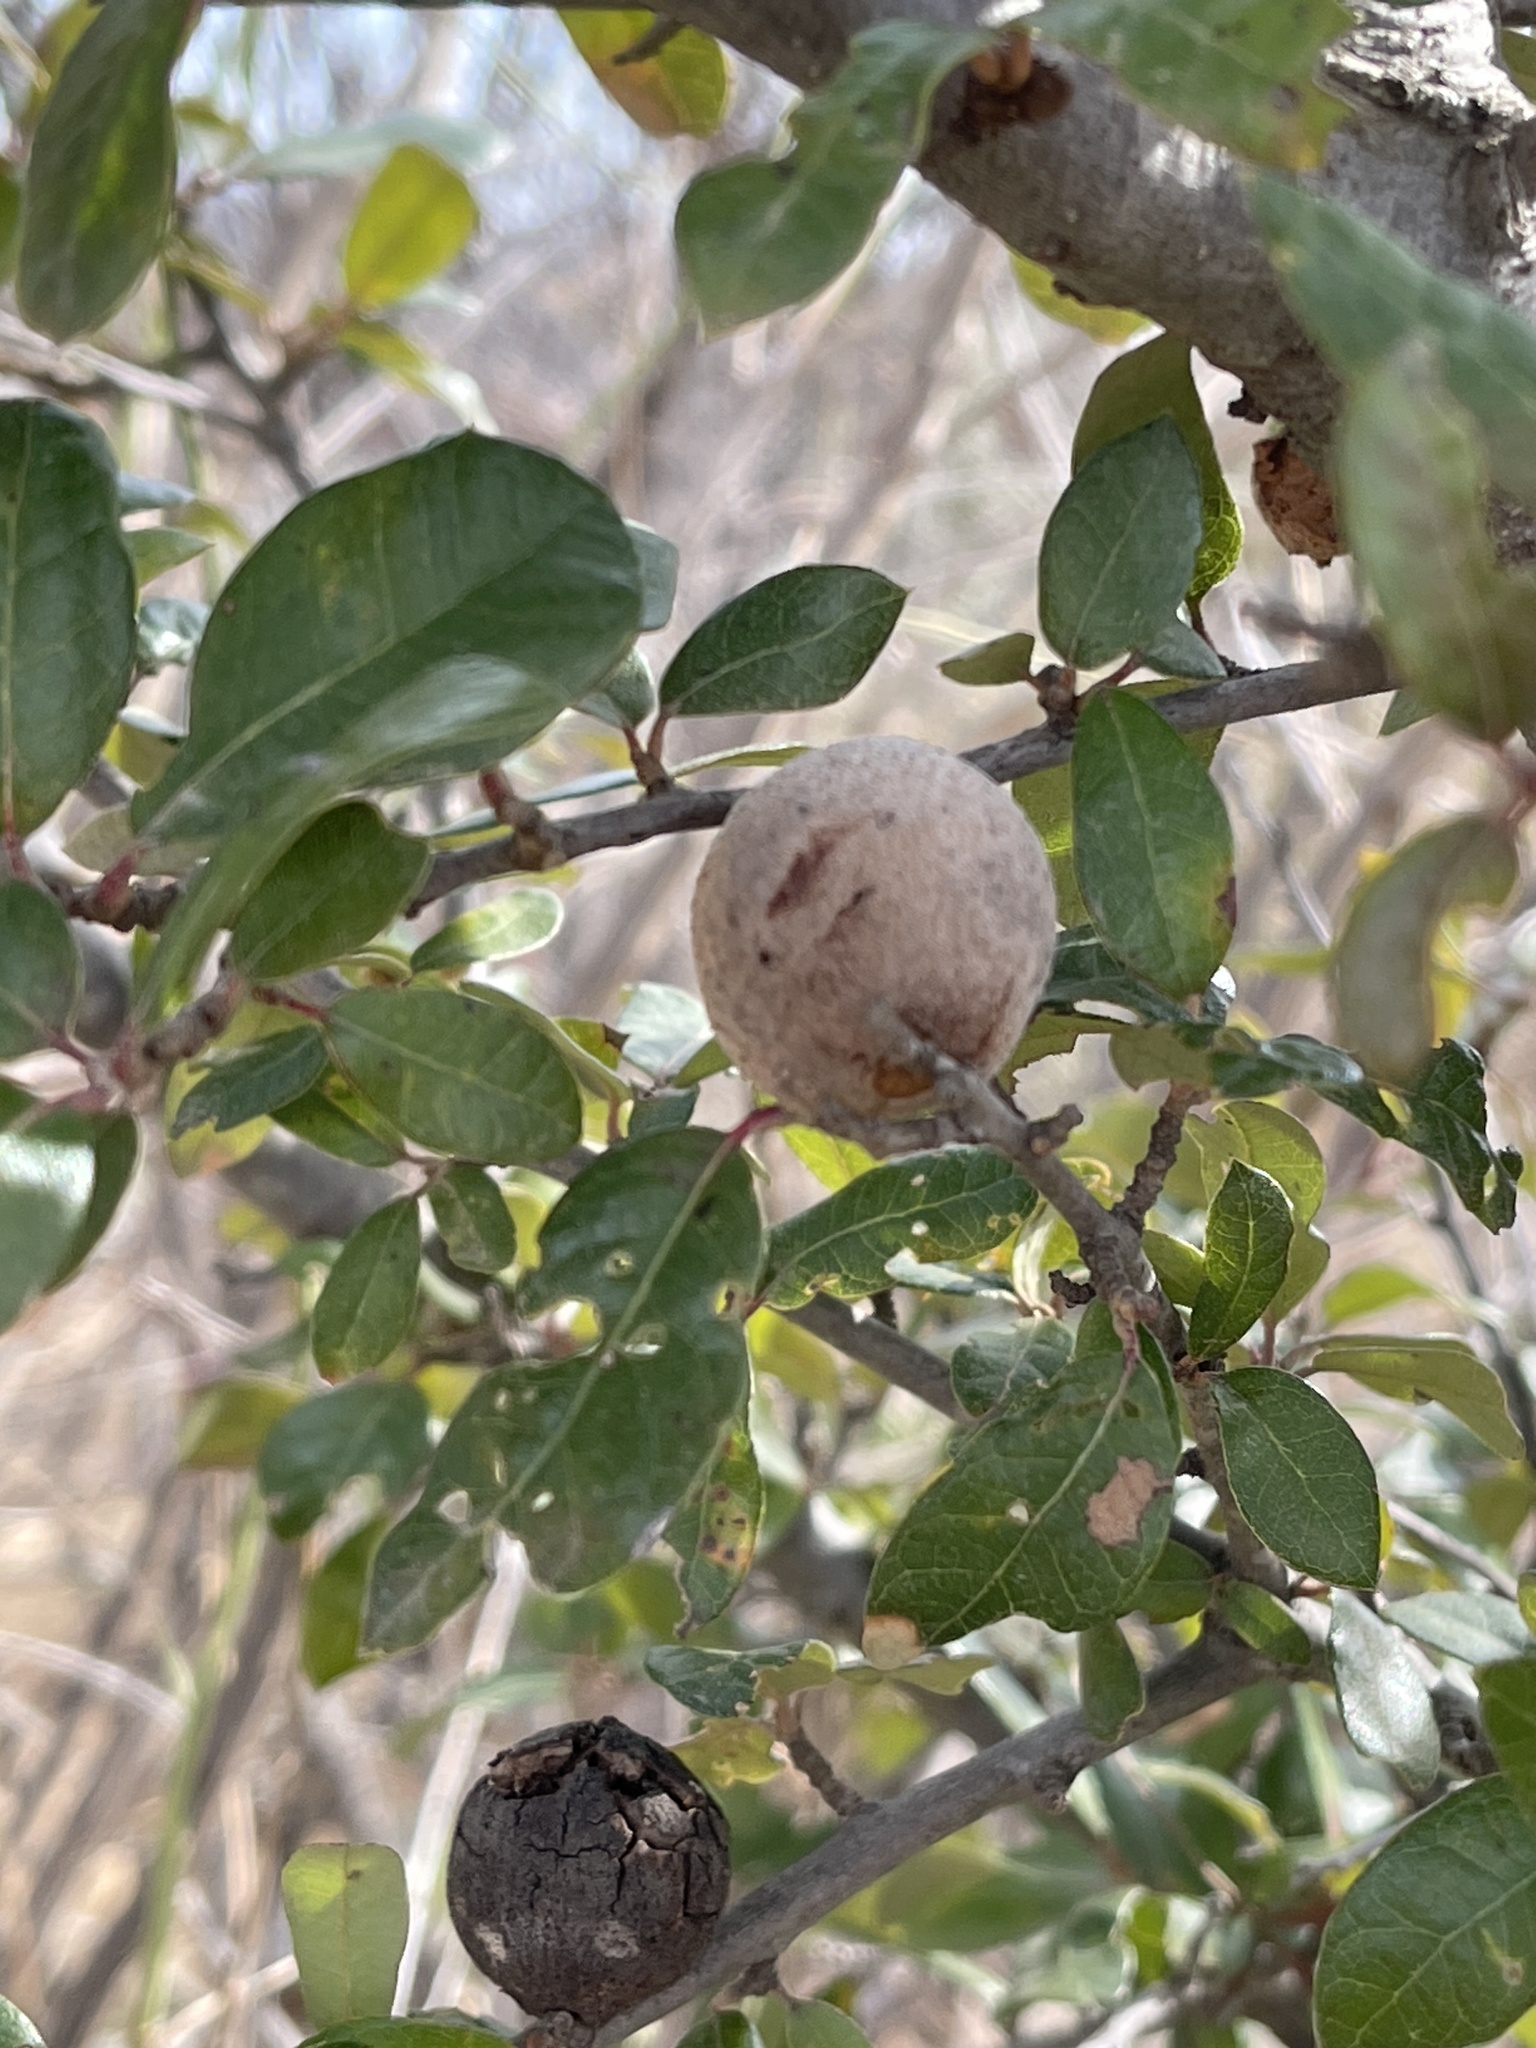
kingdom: Animalia
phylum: Arthropoda
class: Insecta
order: Hymenoptera
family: Cynipidae
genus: Disholcaspis
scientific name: Disholcaspis
